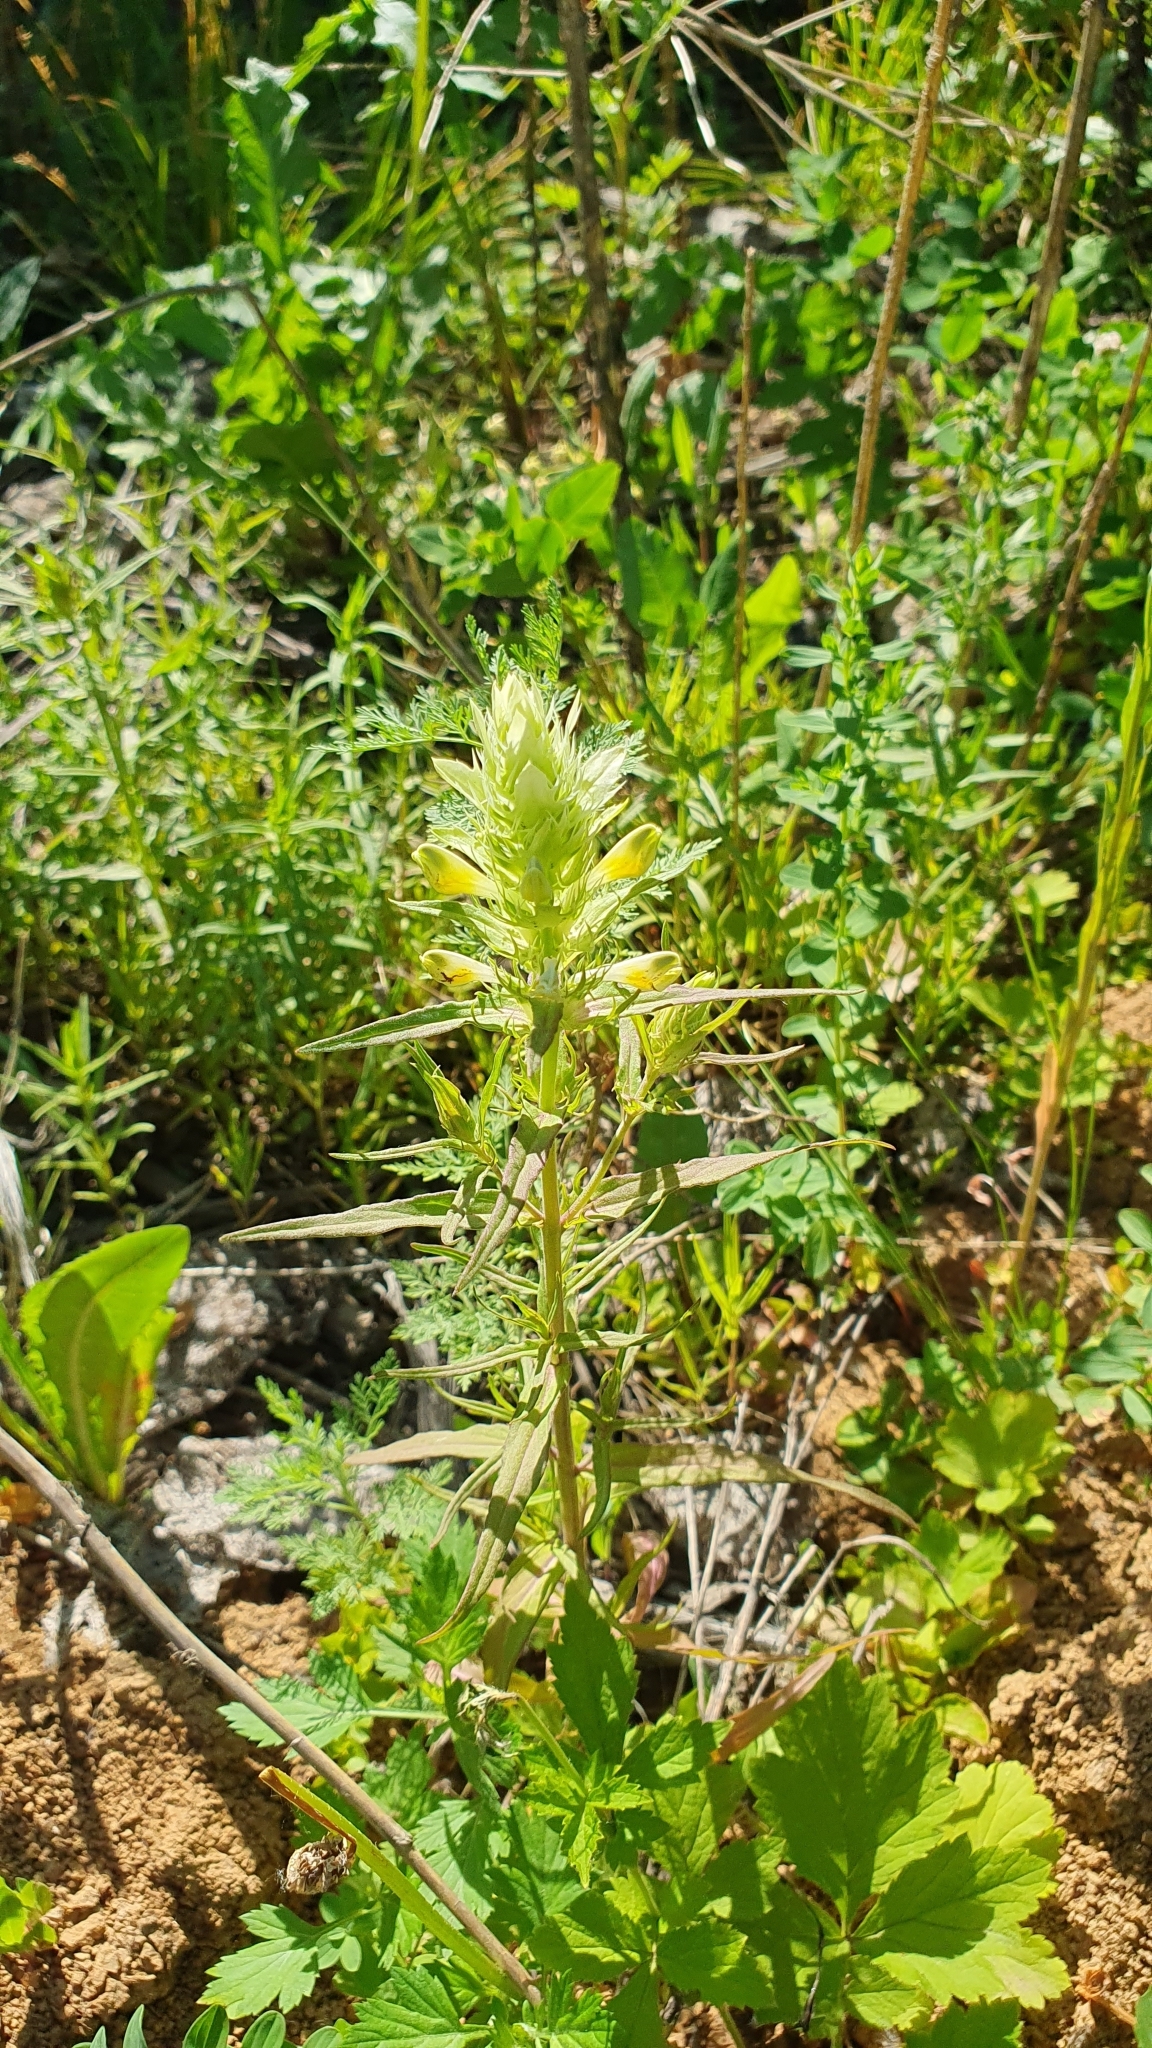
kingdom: Plantae
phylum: Tracheophyta
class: Magnoliopsida
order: Lamiales
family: Orobanchaceae
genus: Melampyrum
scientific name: Melampyrum arvense
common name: Field cow-wheat
